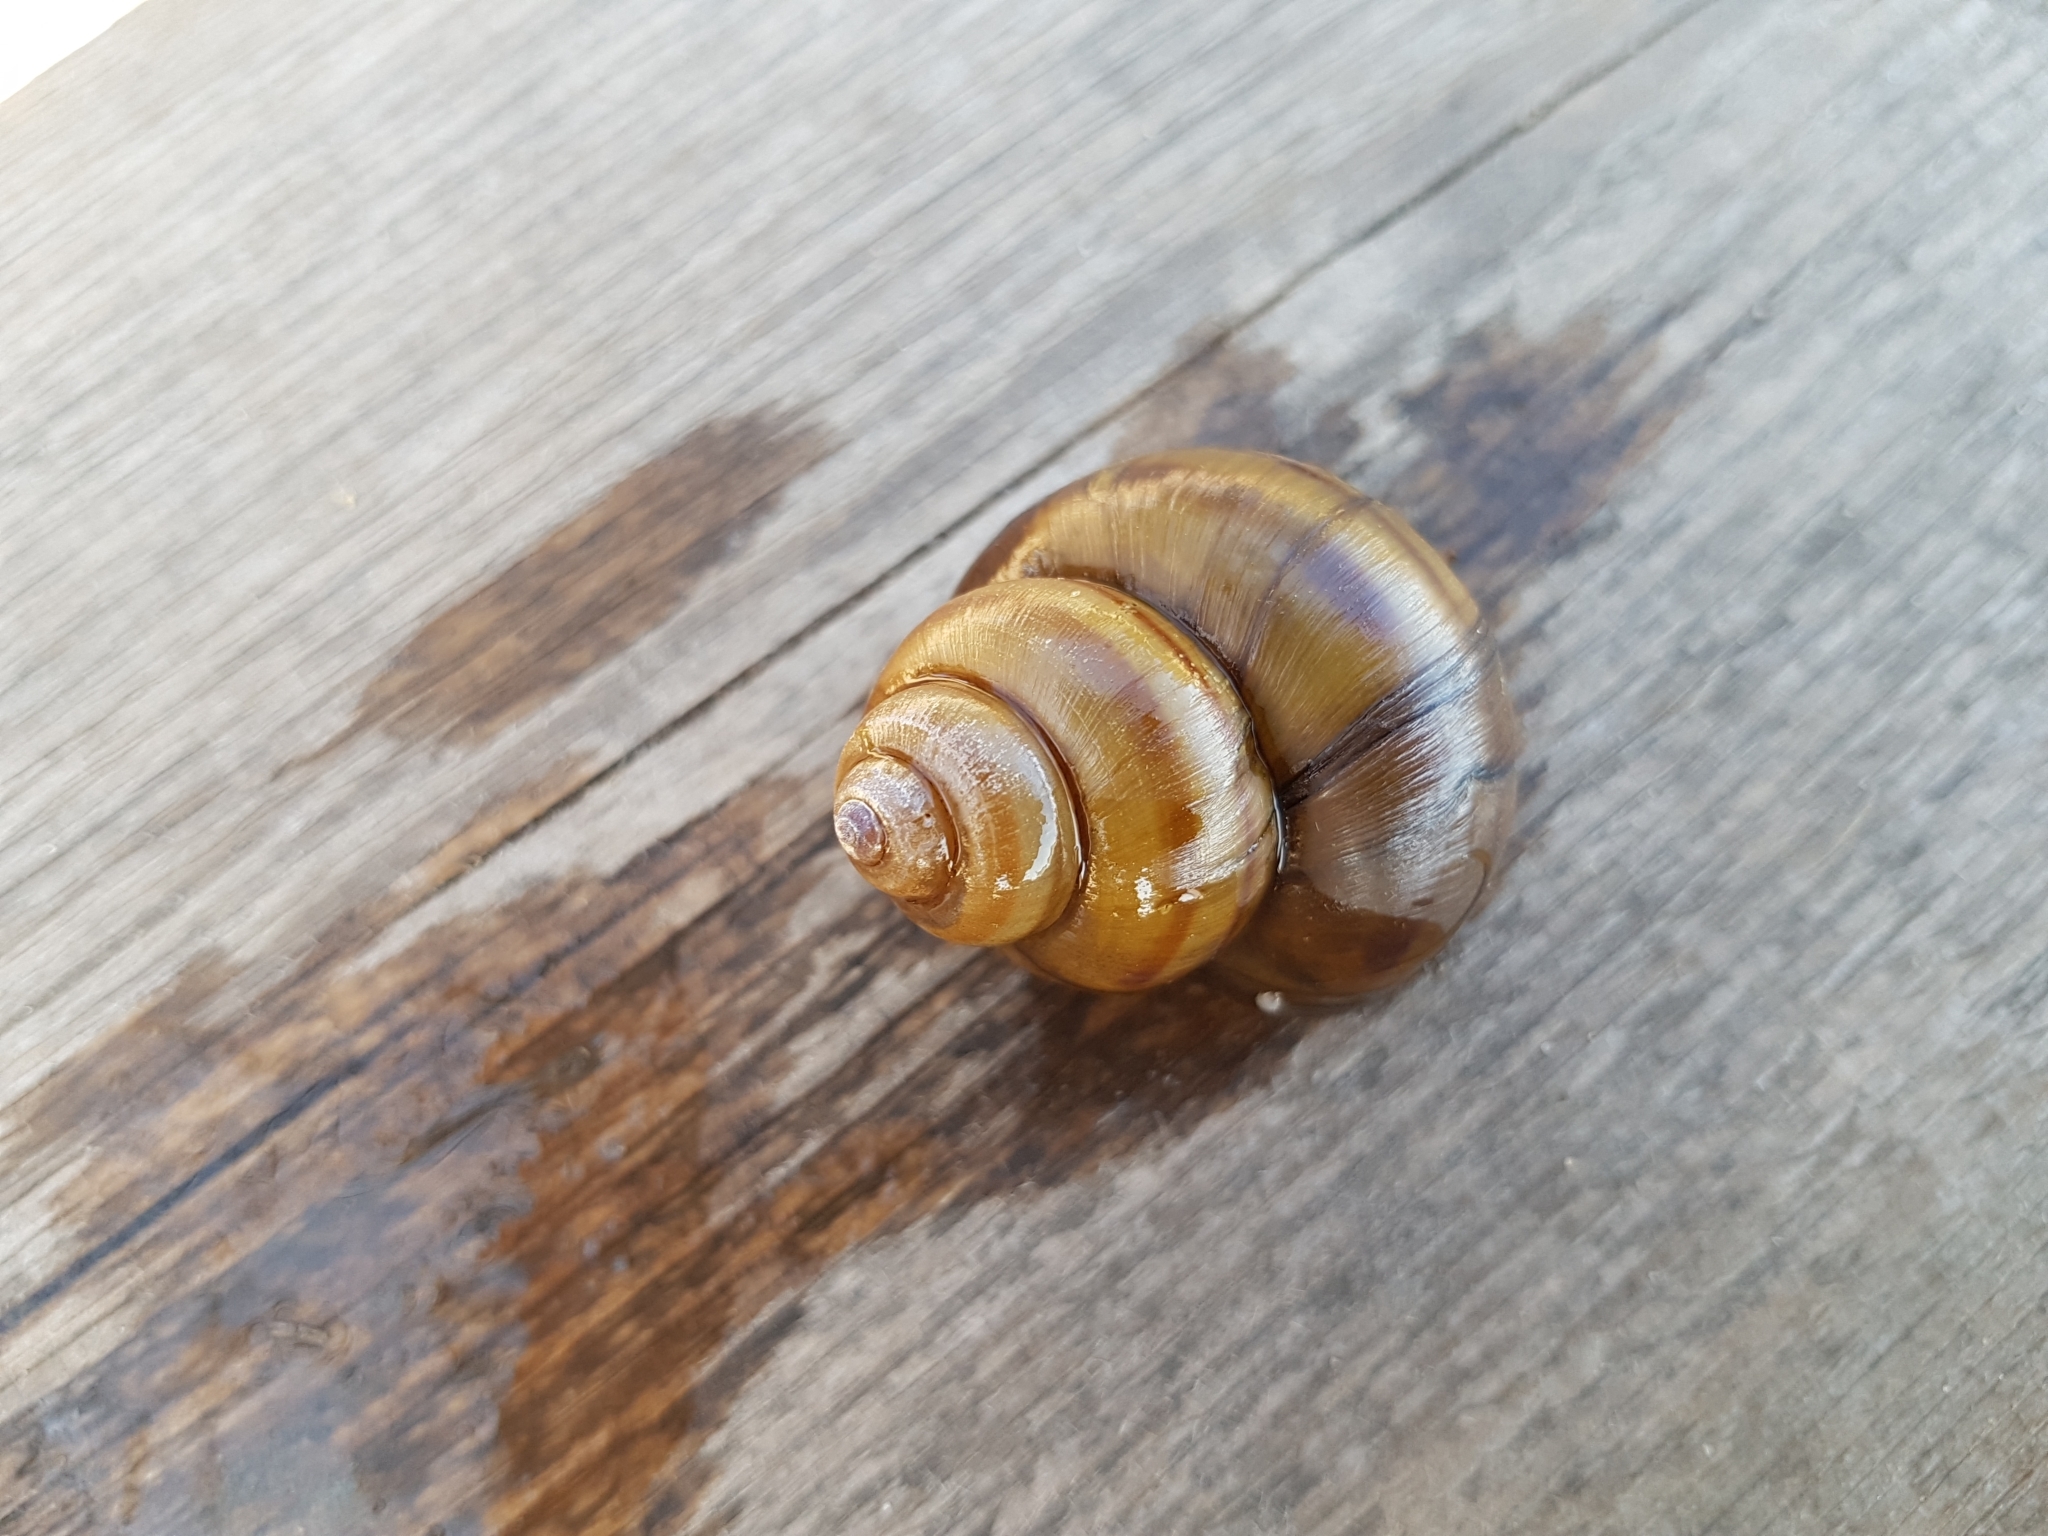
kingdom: Animalia
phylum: Mollusca
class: Gastropoda
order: Architaenioglossa
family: Viviparidae
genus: Viviparus
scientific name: Viviparus contectus
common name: Lister's river snail
